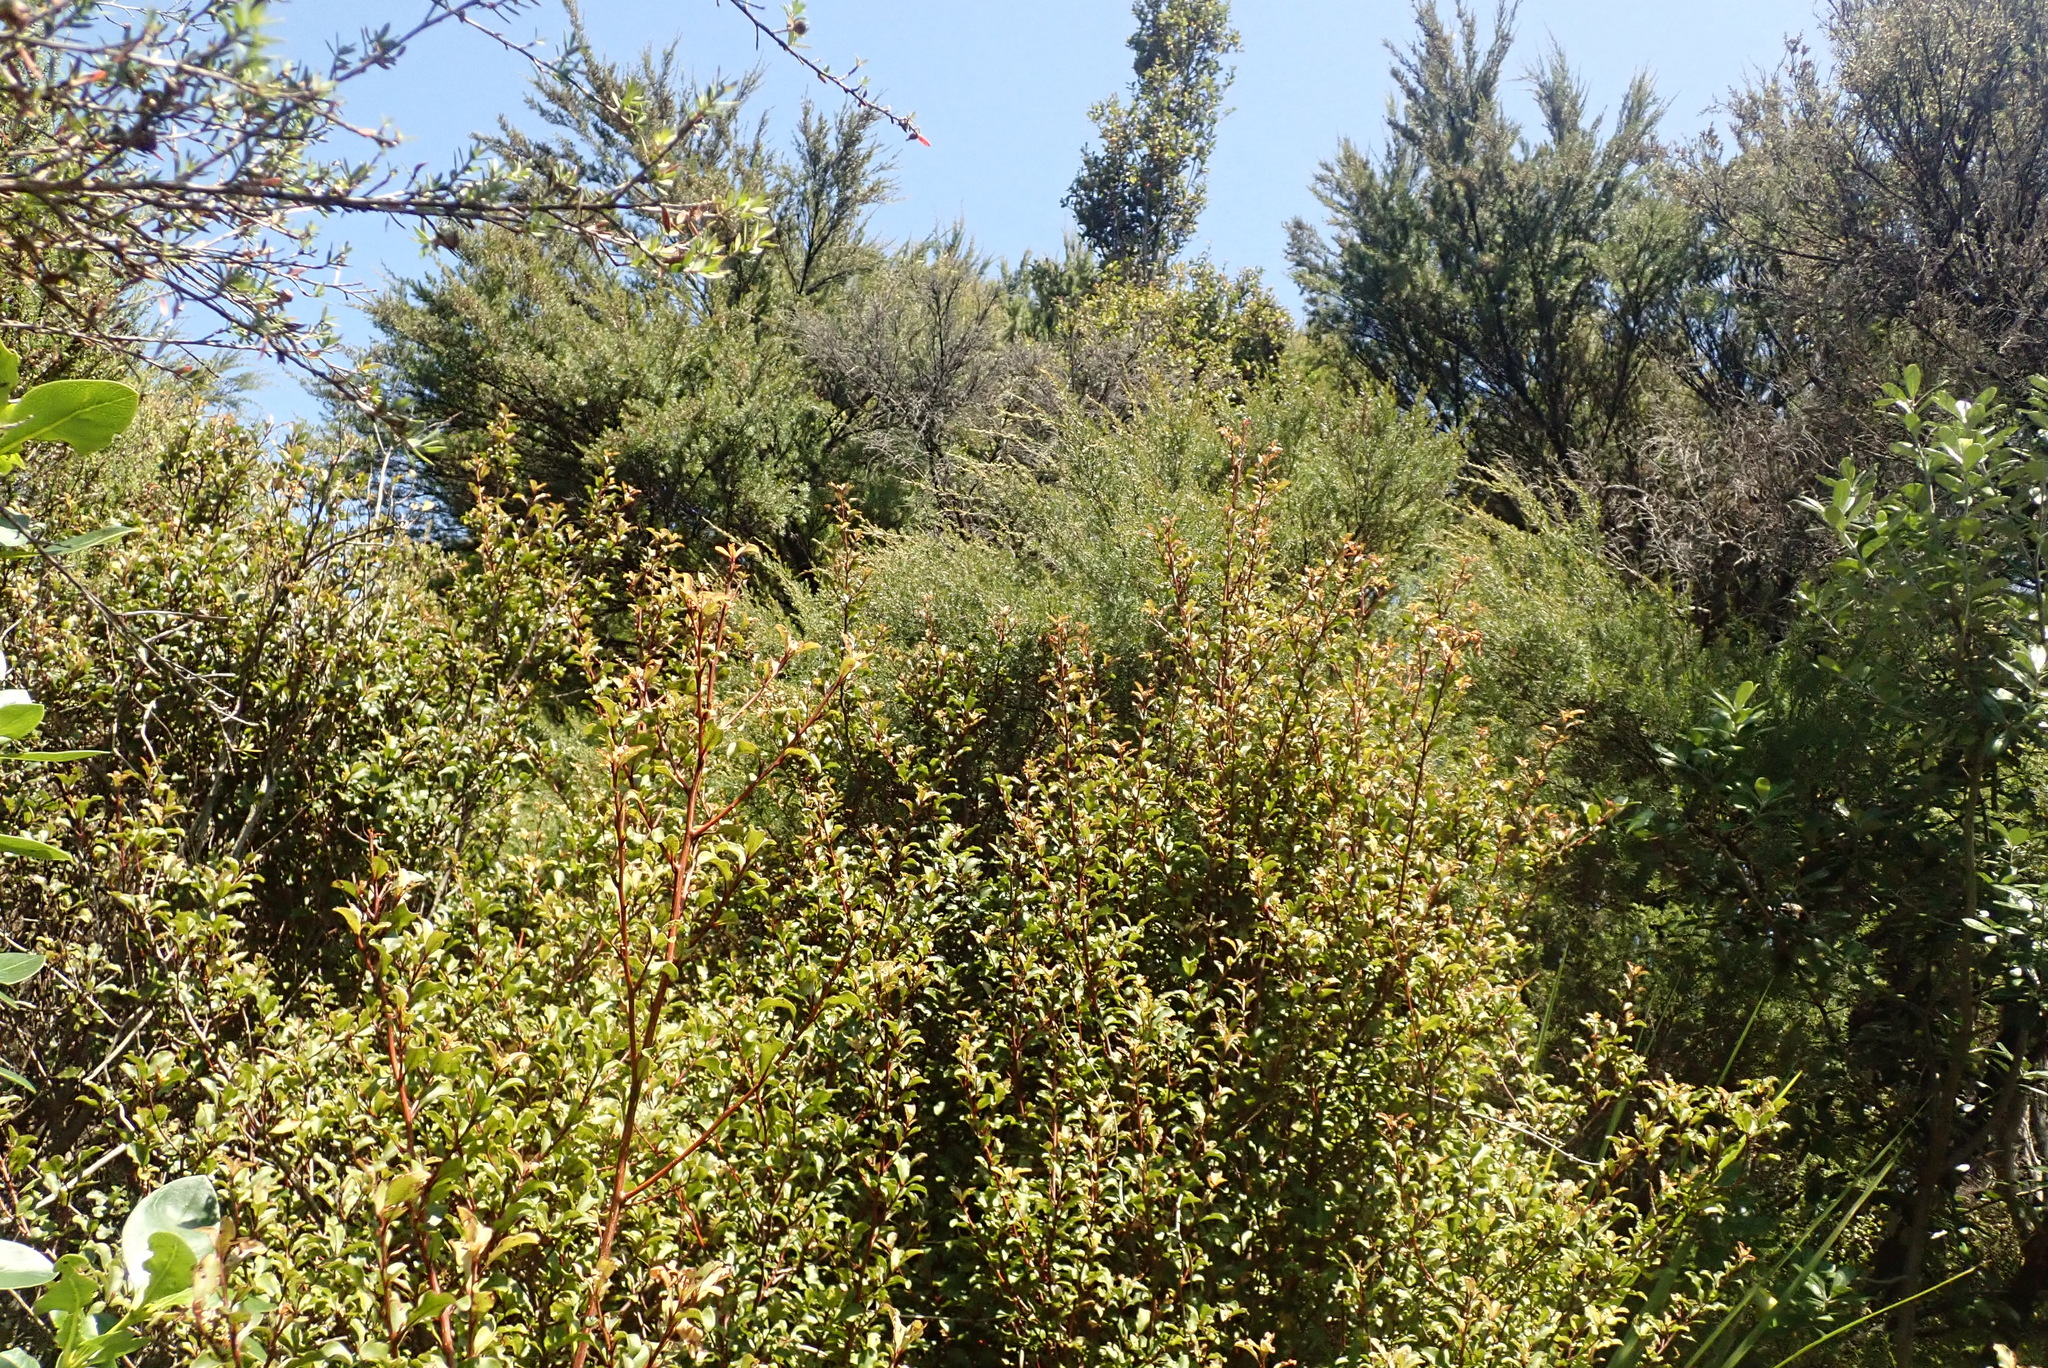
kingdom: Plantae
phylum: Tracheophyta
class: Magnoliopsida
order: Ericales
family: Primulaceae
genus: Myrsine
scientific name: Myrsine australis
